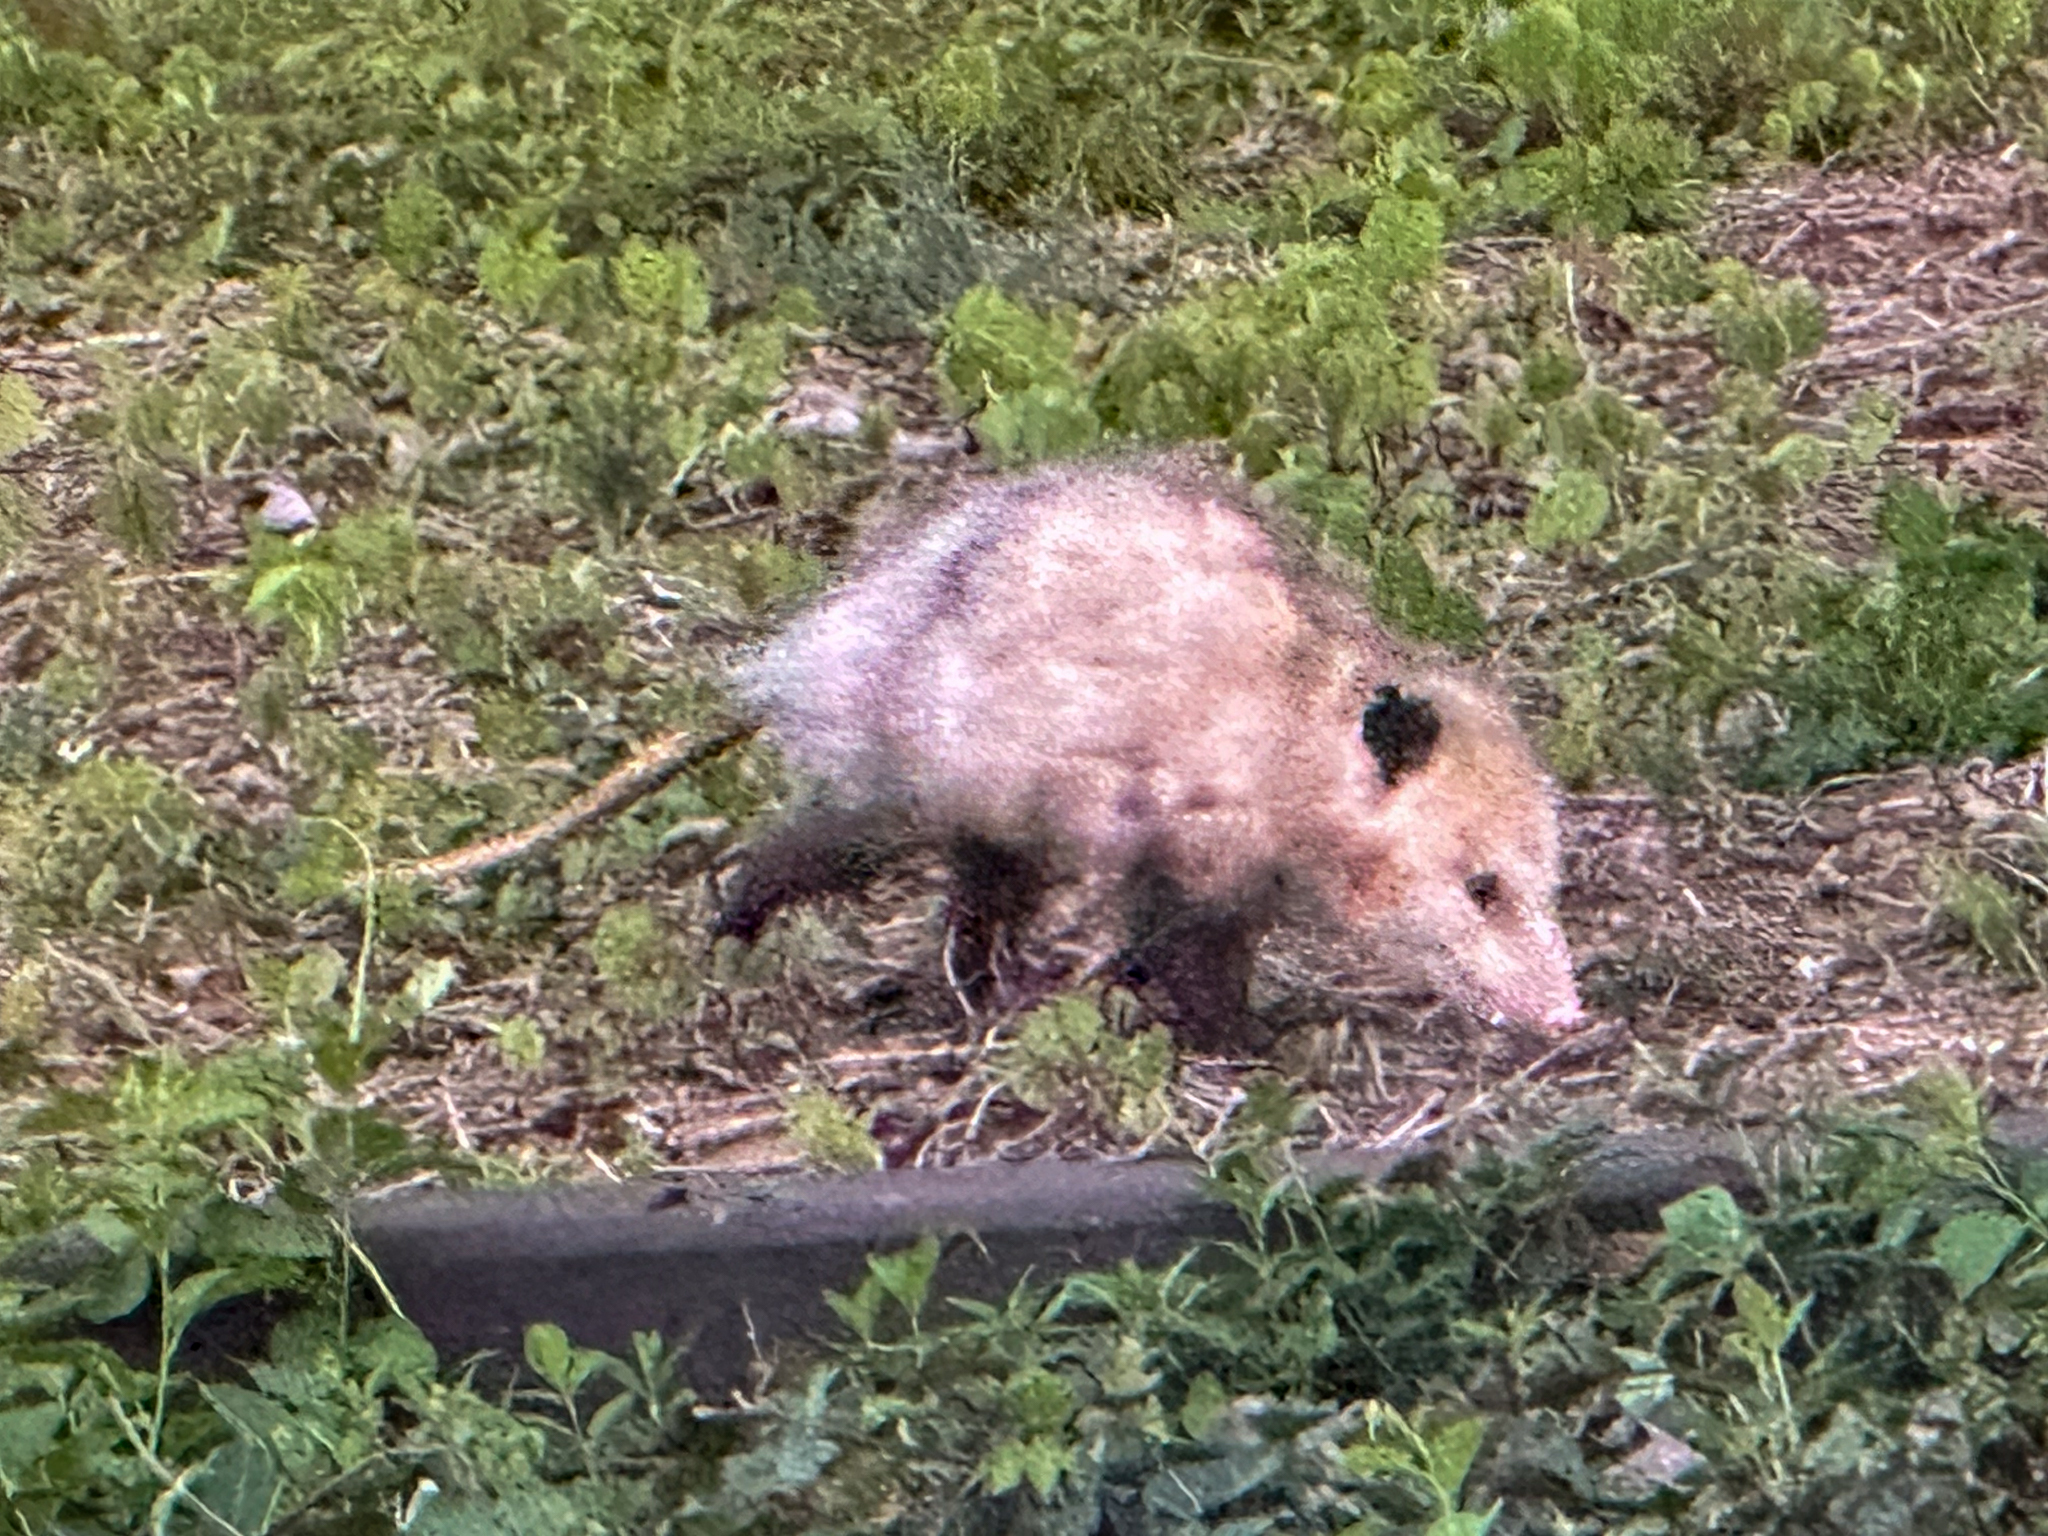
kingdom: Animalia
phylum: Chordata
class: Mammalia
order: Didelphimorphia
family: Didelphidae
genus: Didelphis
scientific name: Didelphis virginiana
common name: Virginia opossum
